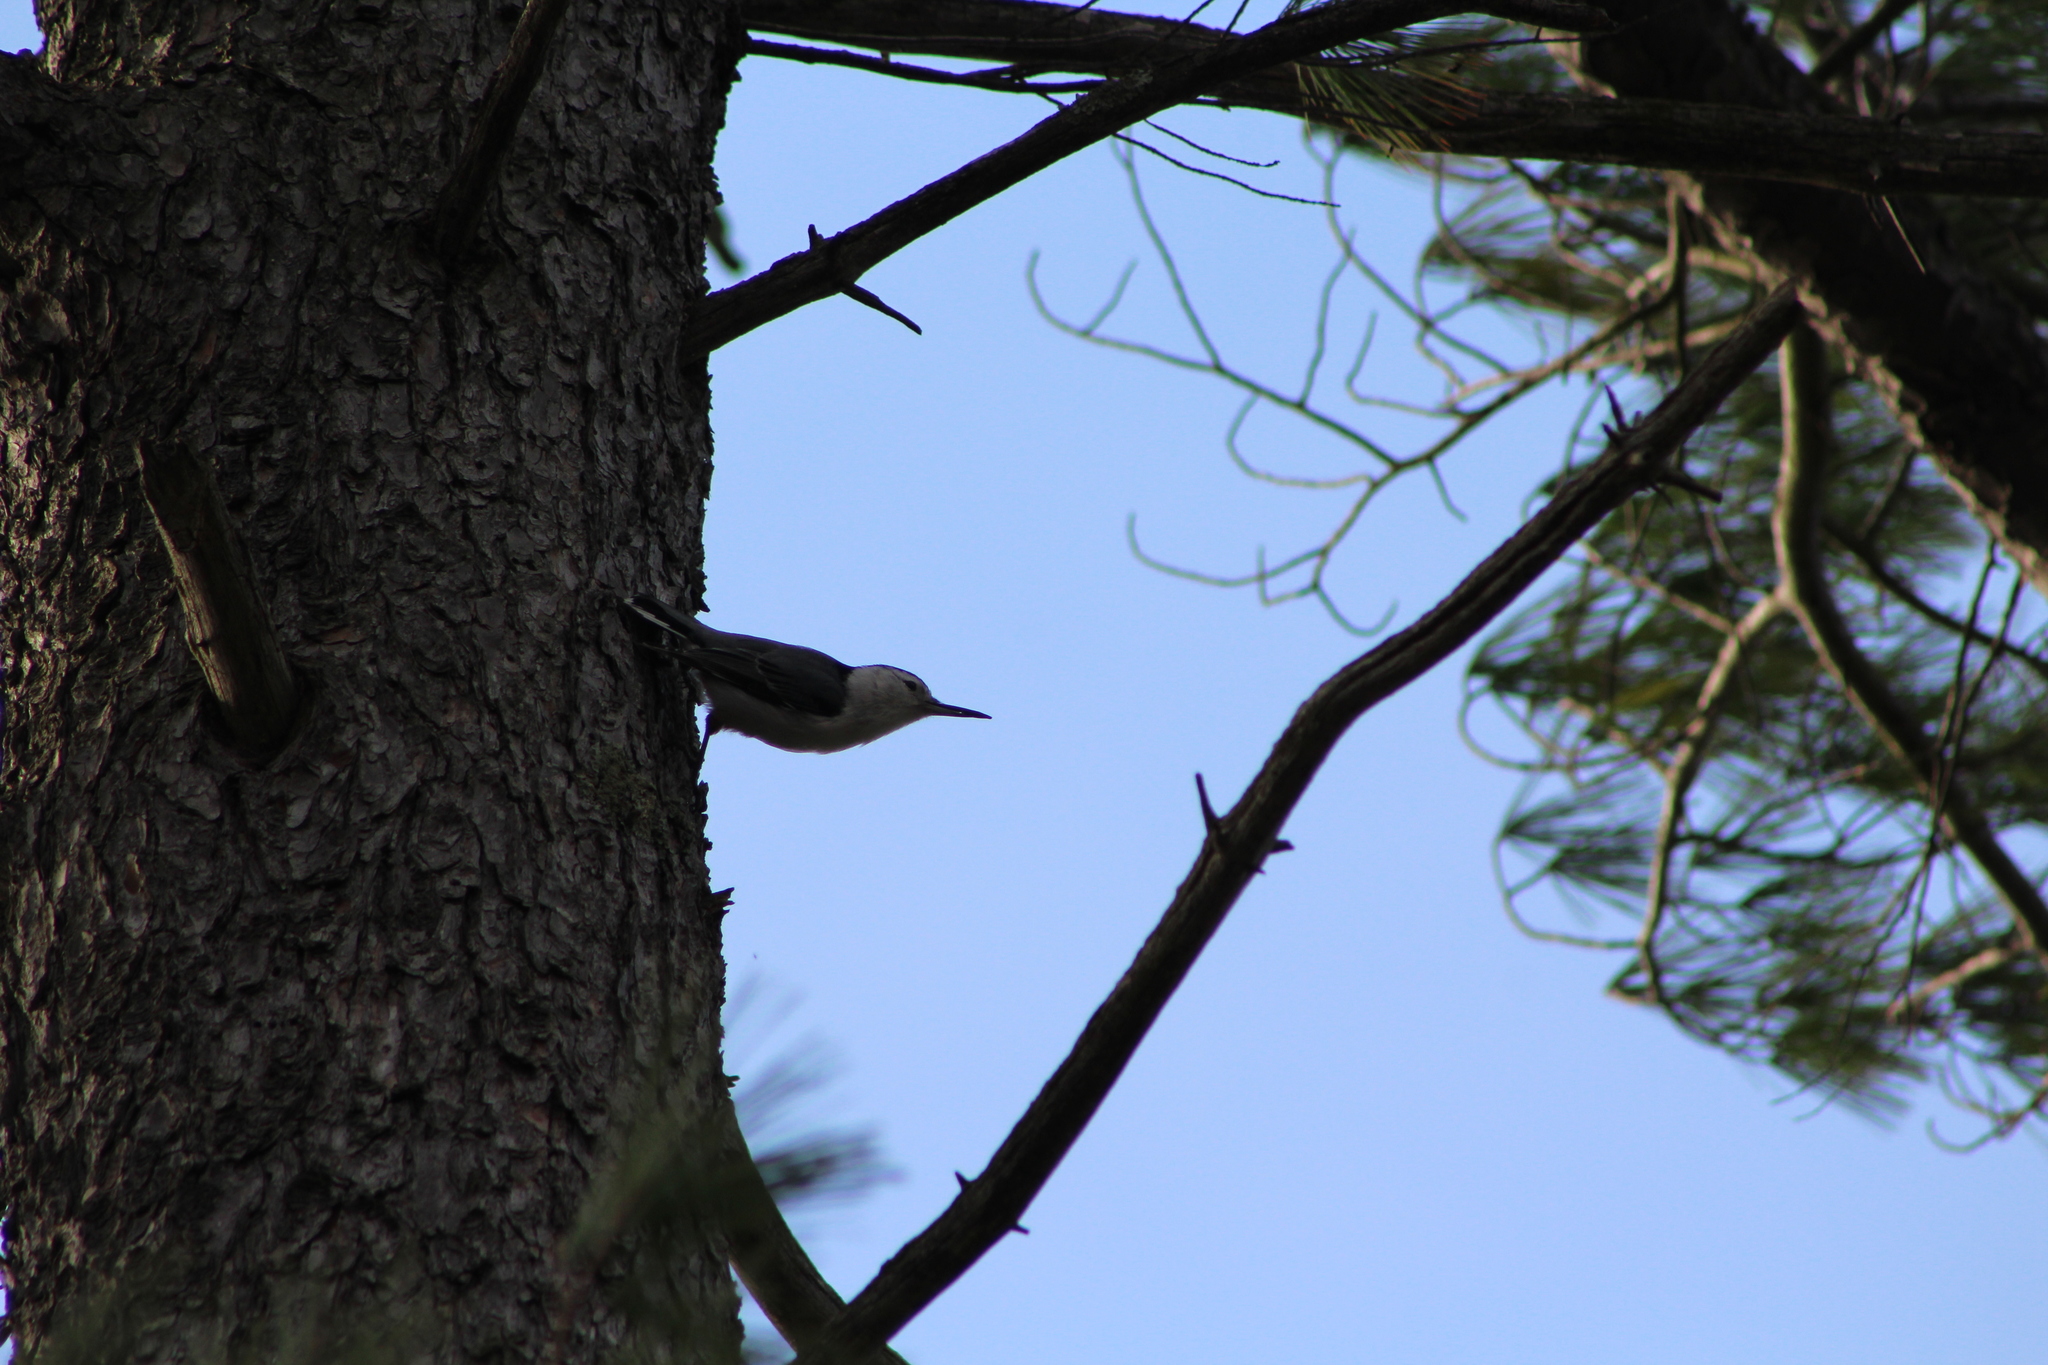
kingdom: Animalia
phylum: Chordata
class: Aves
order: Passeriformes
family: Sittidae
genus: Sitta
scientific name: Sitta carolinensis
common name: White-breasted nuthatch
